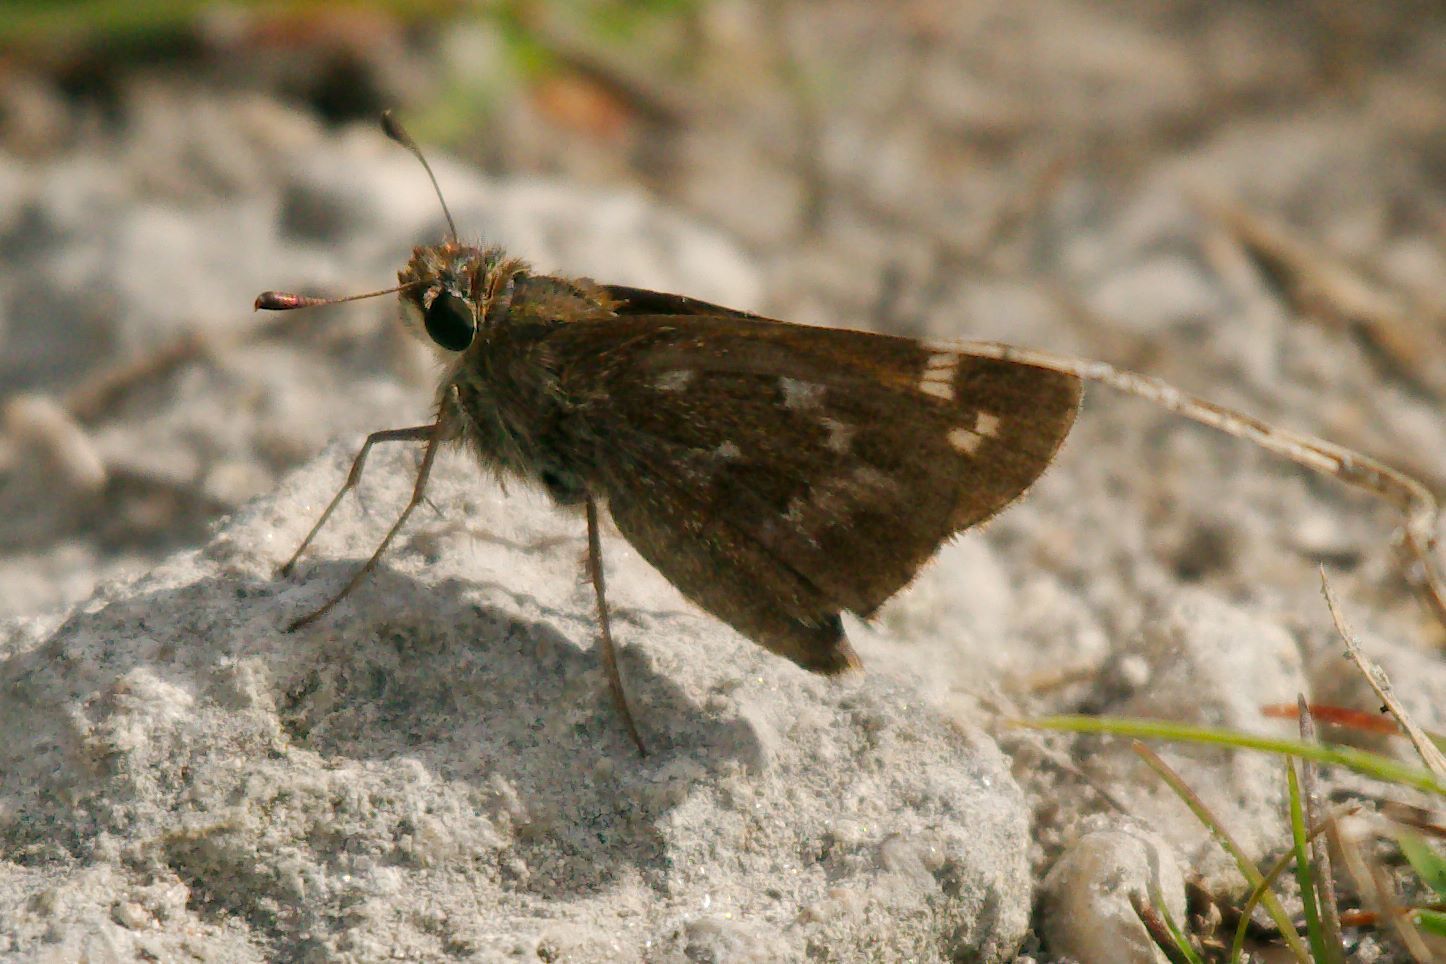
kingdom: Animalia
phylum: Arthropoda
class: Insecta
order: Lepidoptera
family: Hesperiidae
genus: Atalopedes
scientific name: Atalopedes
